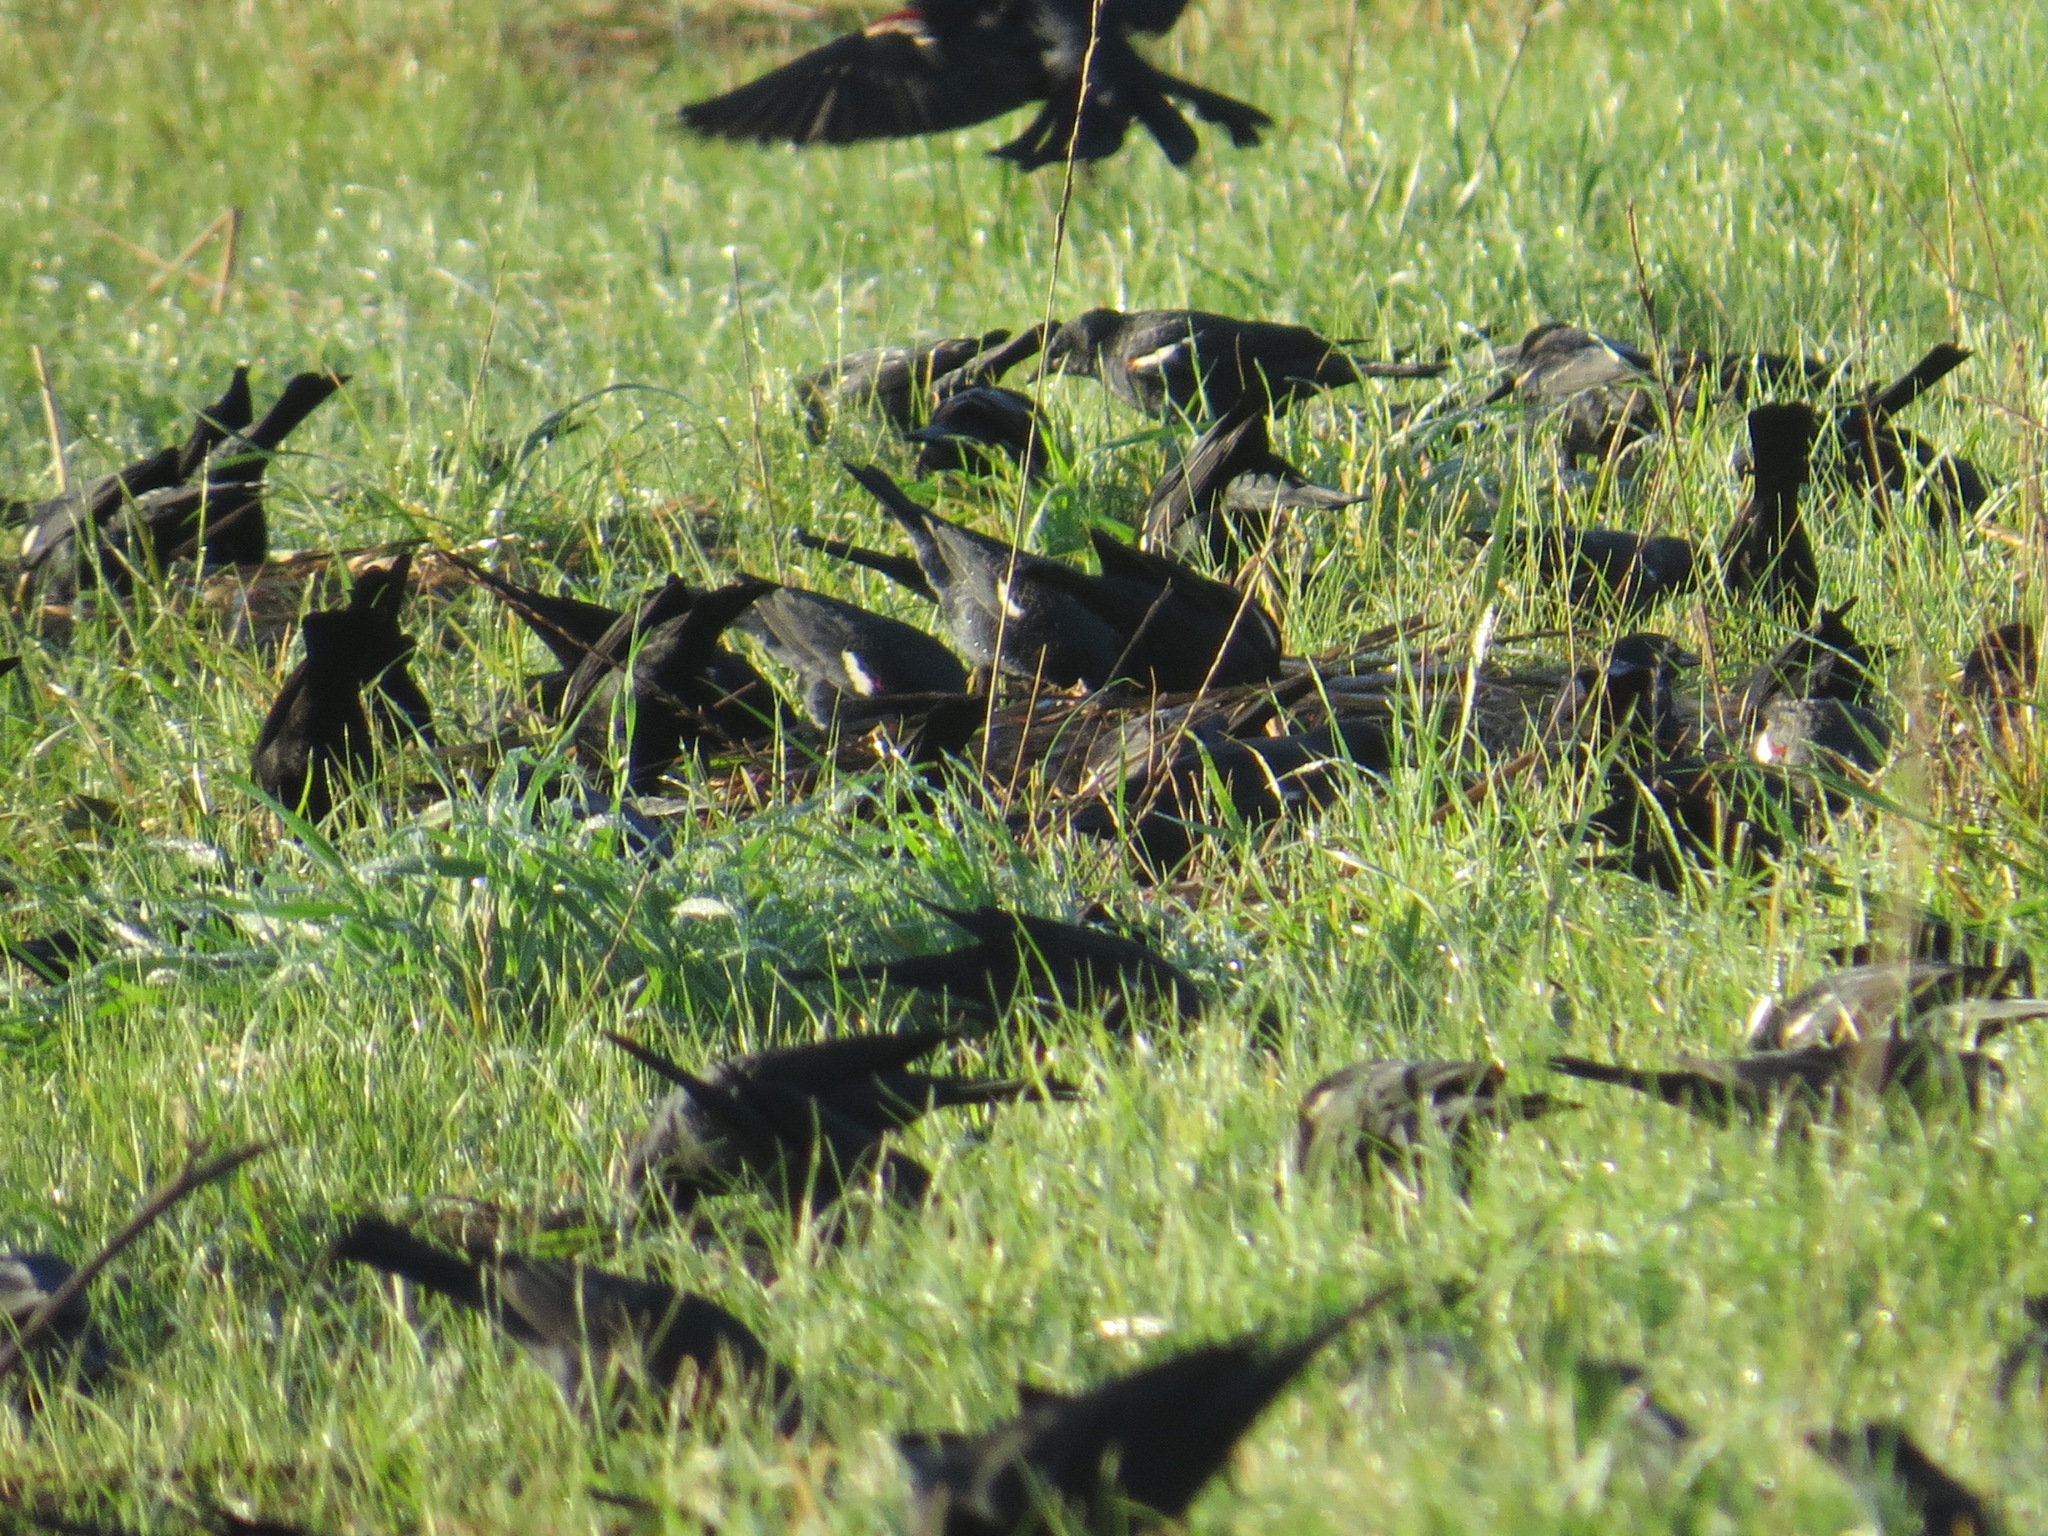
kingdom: Animalia
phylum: Chordata
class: Aves
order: Passeriformes
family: Icteridae
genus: Agelaius
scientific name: Agelaius tricolor
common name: Tricolored blackbird
